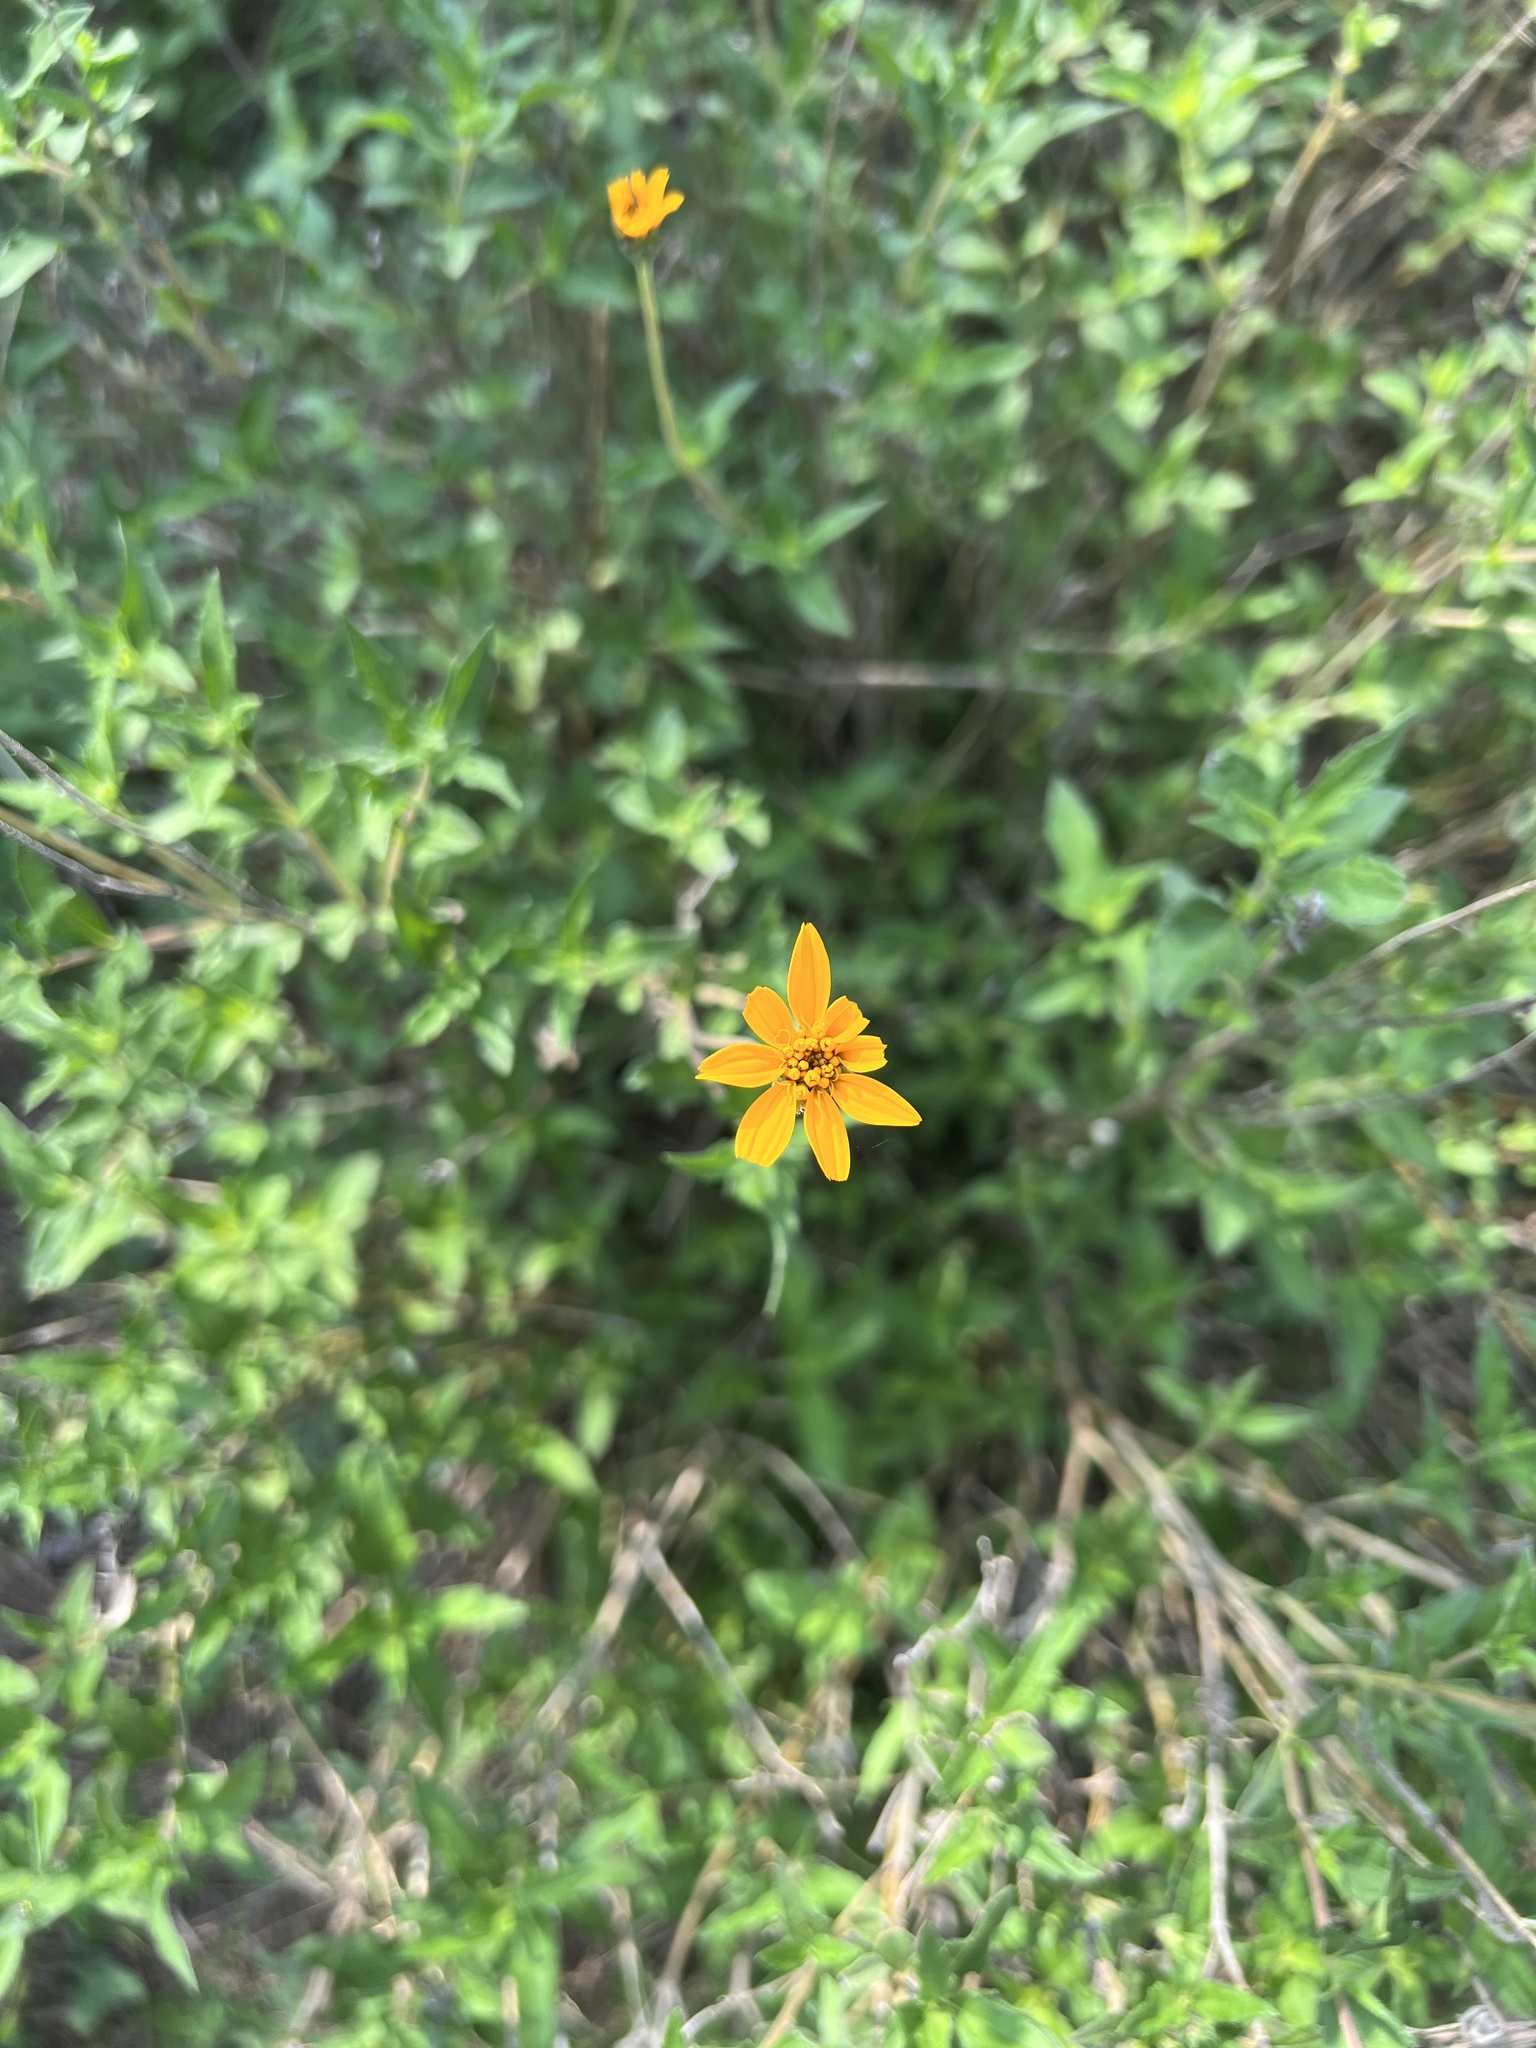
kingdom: Plantae
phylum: Tracheophyta
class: Magnoliopsida
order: Asterales
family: Asteraceae
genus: Wedelia
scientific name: Wedelia acapulcensis
